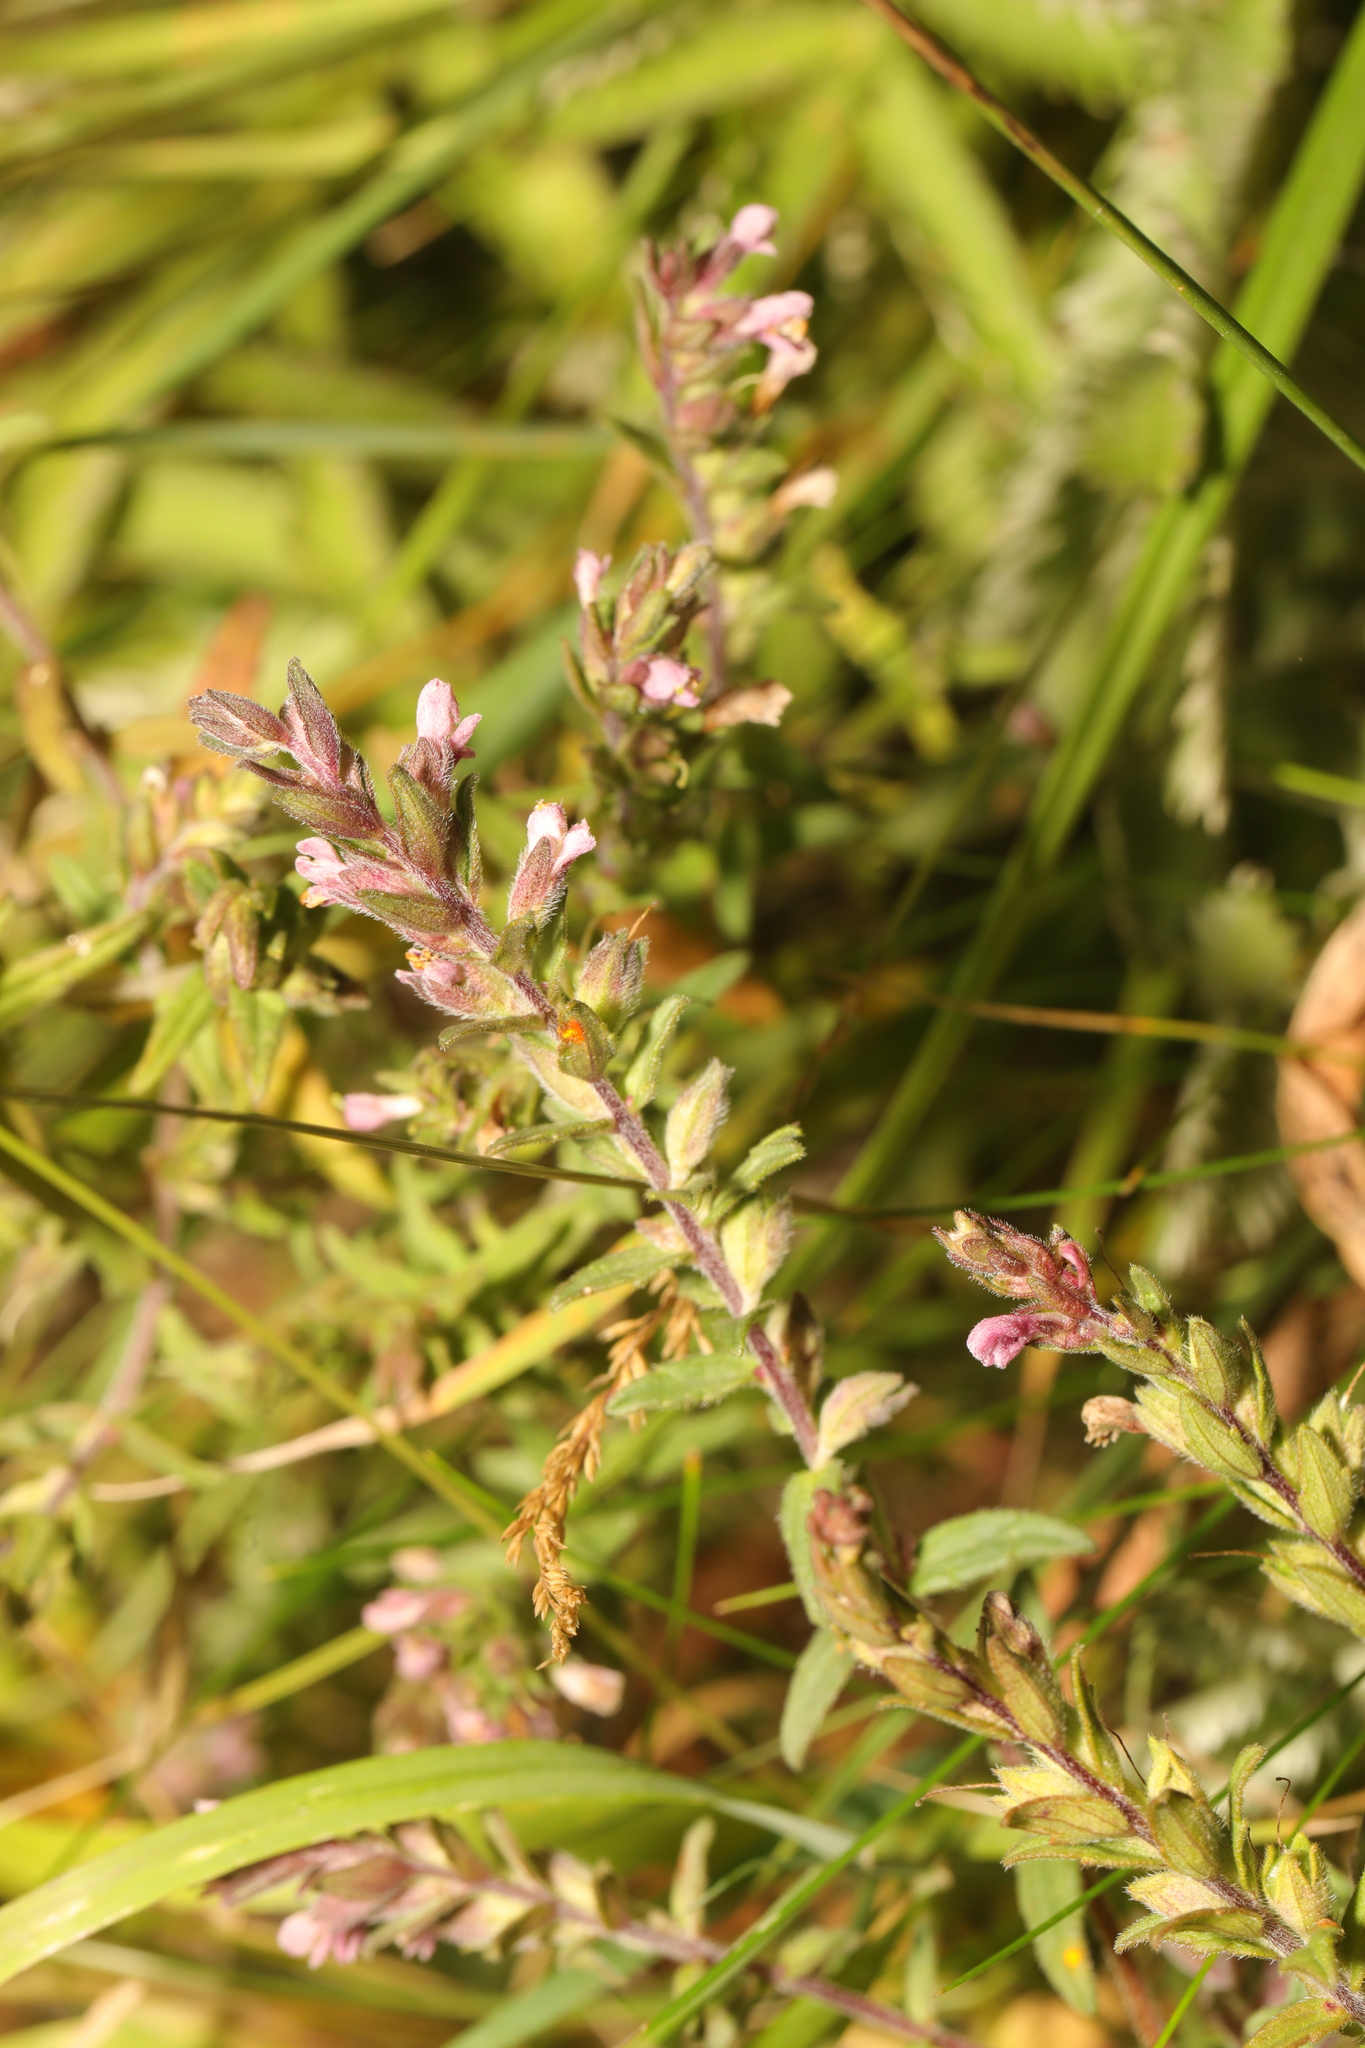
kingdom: Plantae
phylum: Tracheophyta
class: Magnoliopsida
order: Lamiales
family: Orobanchaceae
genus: Odontites
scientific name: Odontites vernus
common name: Red bartsia
